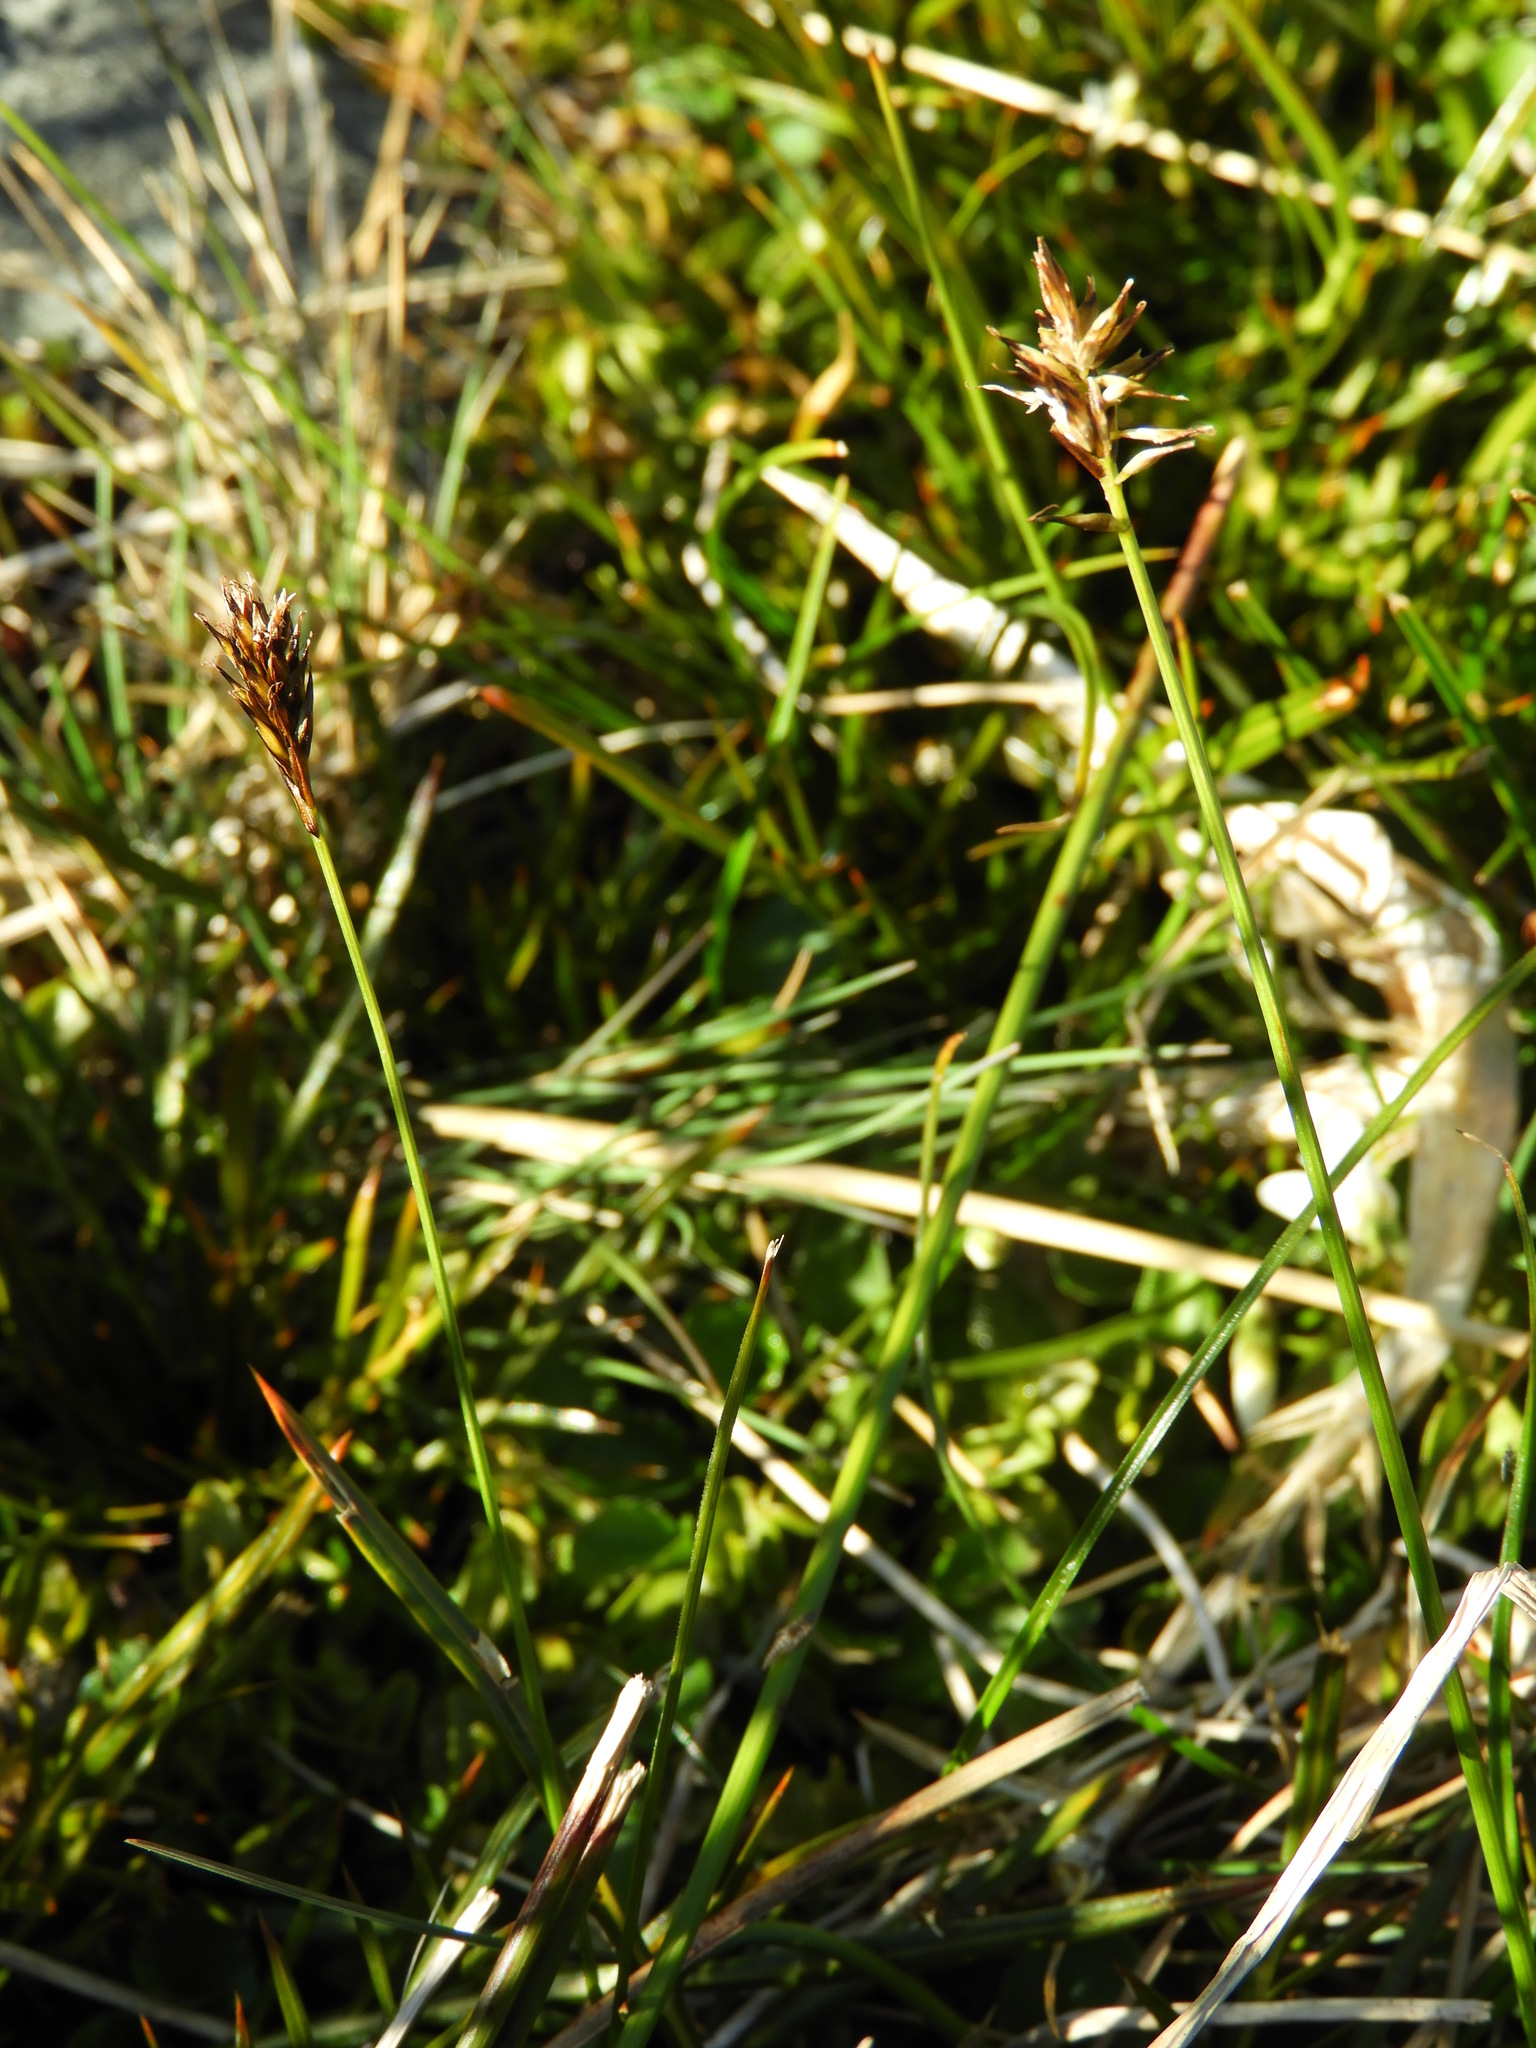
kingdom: Plantae
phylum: Tracheophyta
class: Liliopsida
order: Poales
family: Cyperaceae
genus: Carex
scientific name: Carex cephalotes
